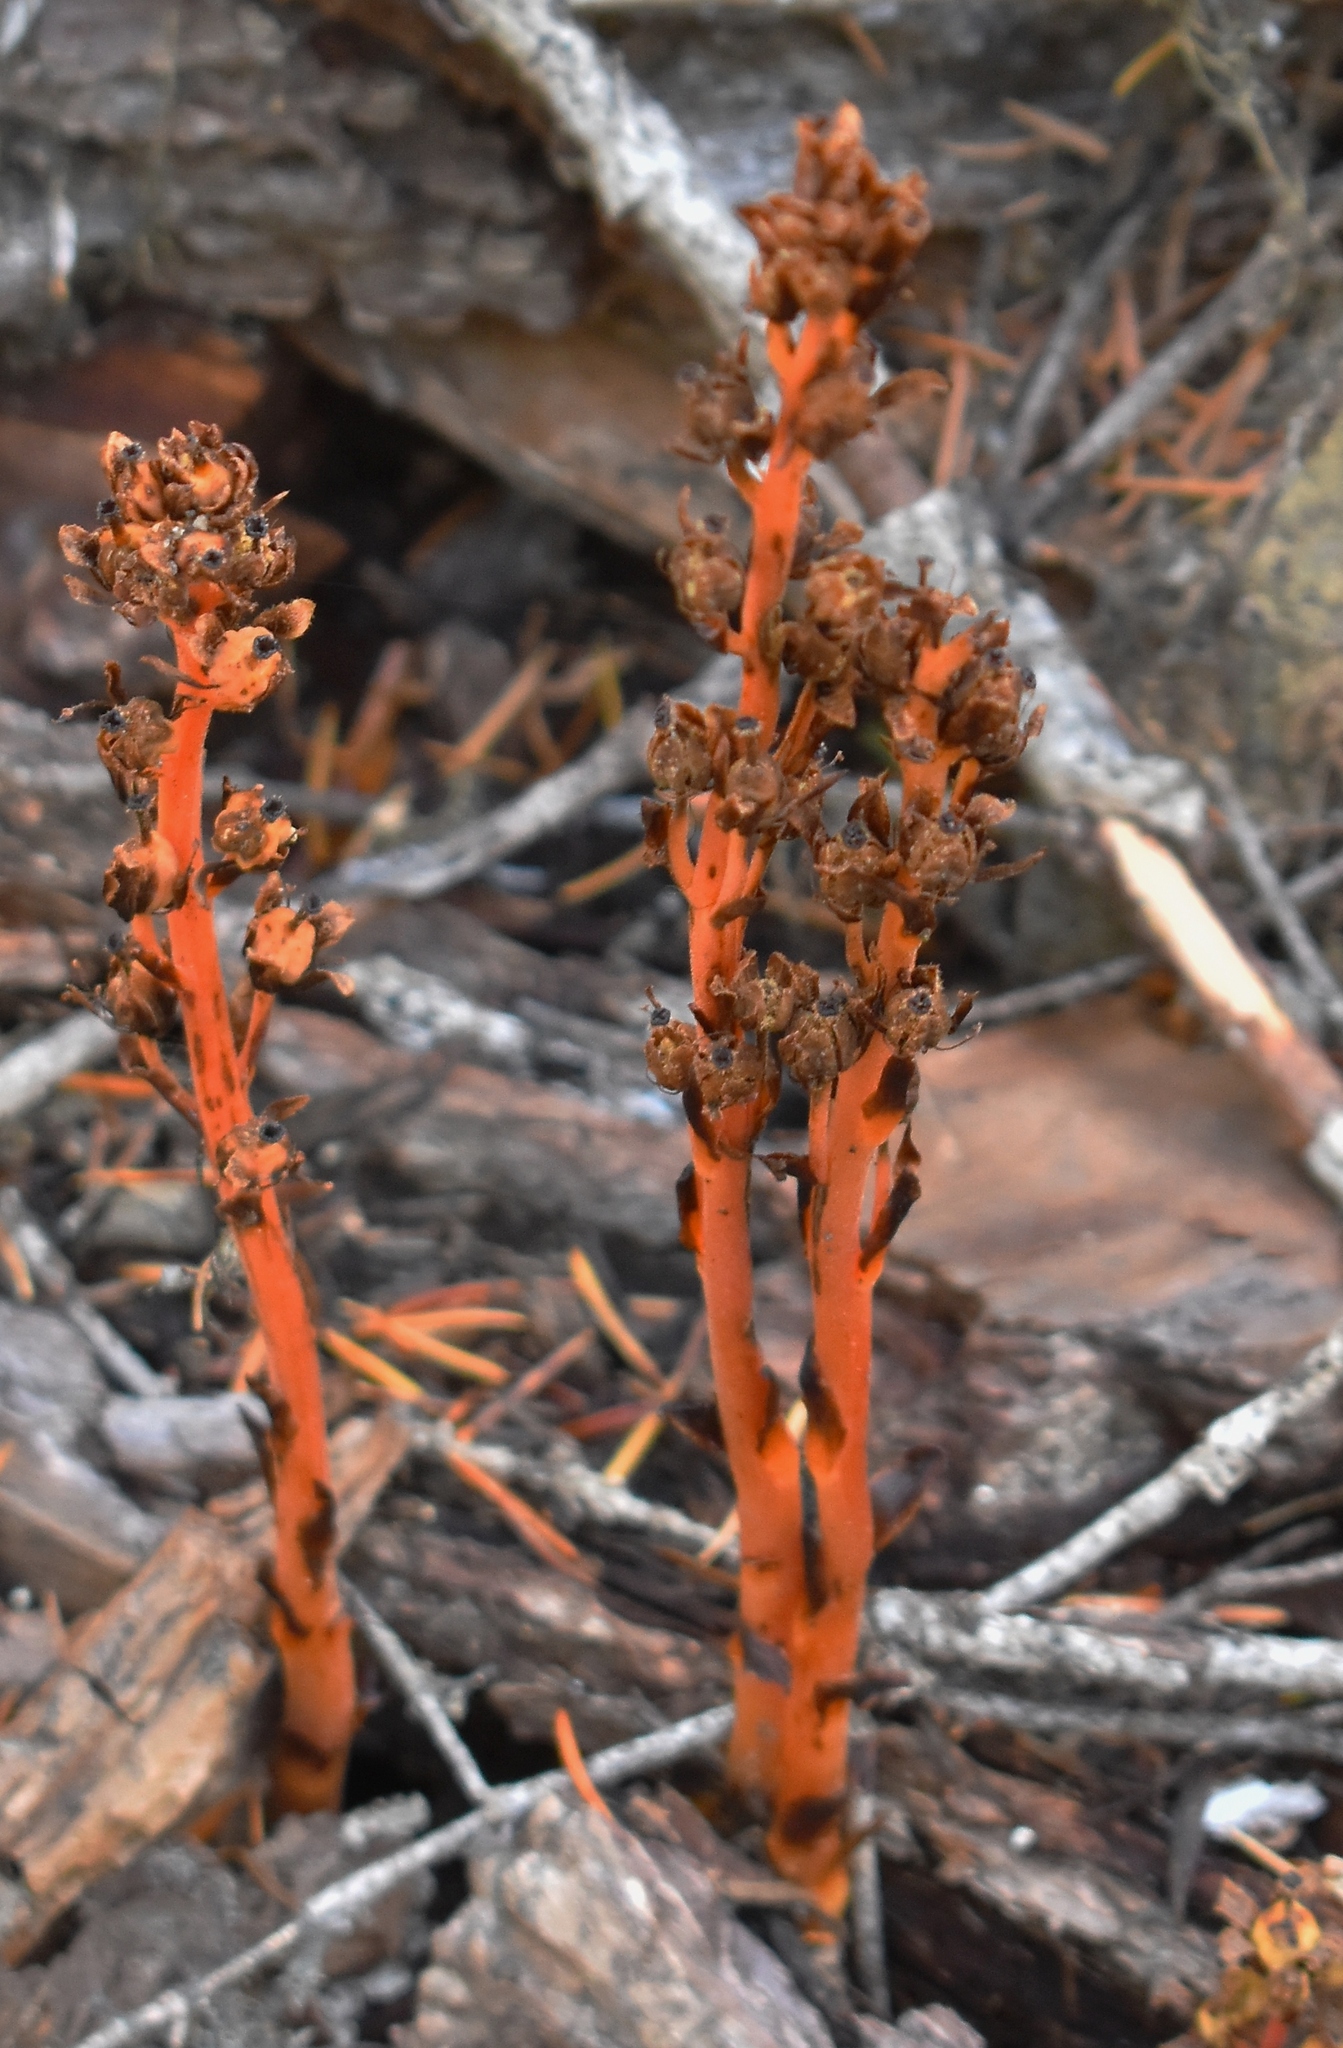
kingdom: Plantae
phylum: Tracheophyta
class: Magnoliopsida
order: Ericales
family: Ericaceae
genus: Hypopitys
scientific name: Hypopitys monotropa
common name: Yellow bird's-nest
